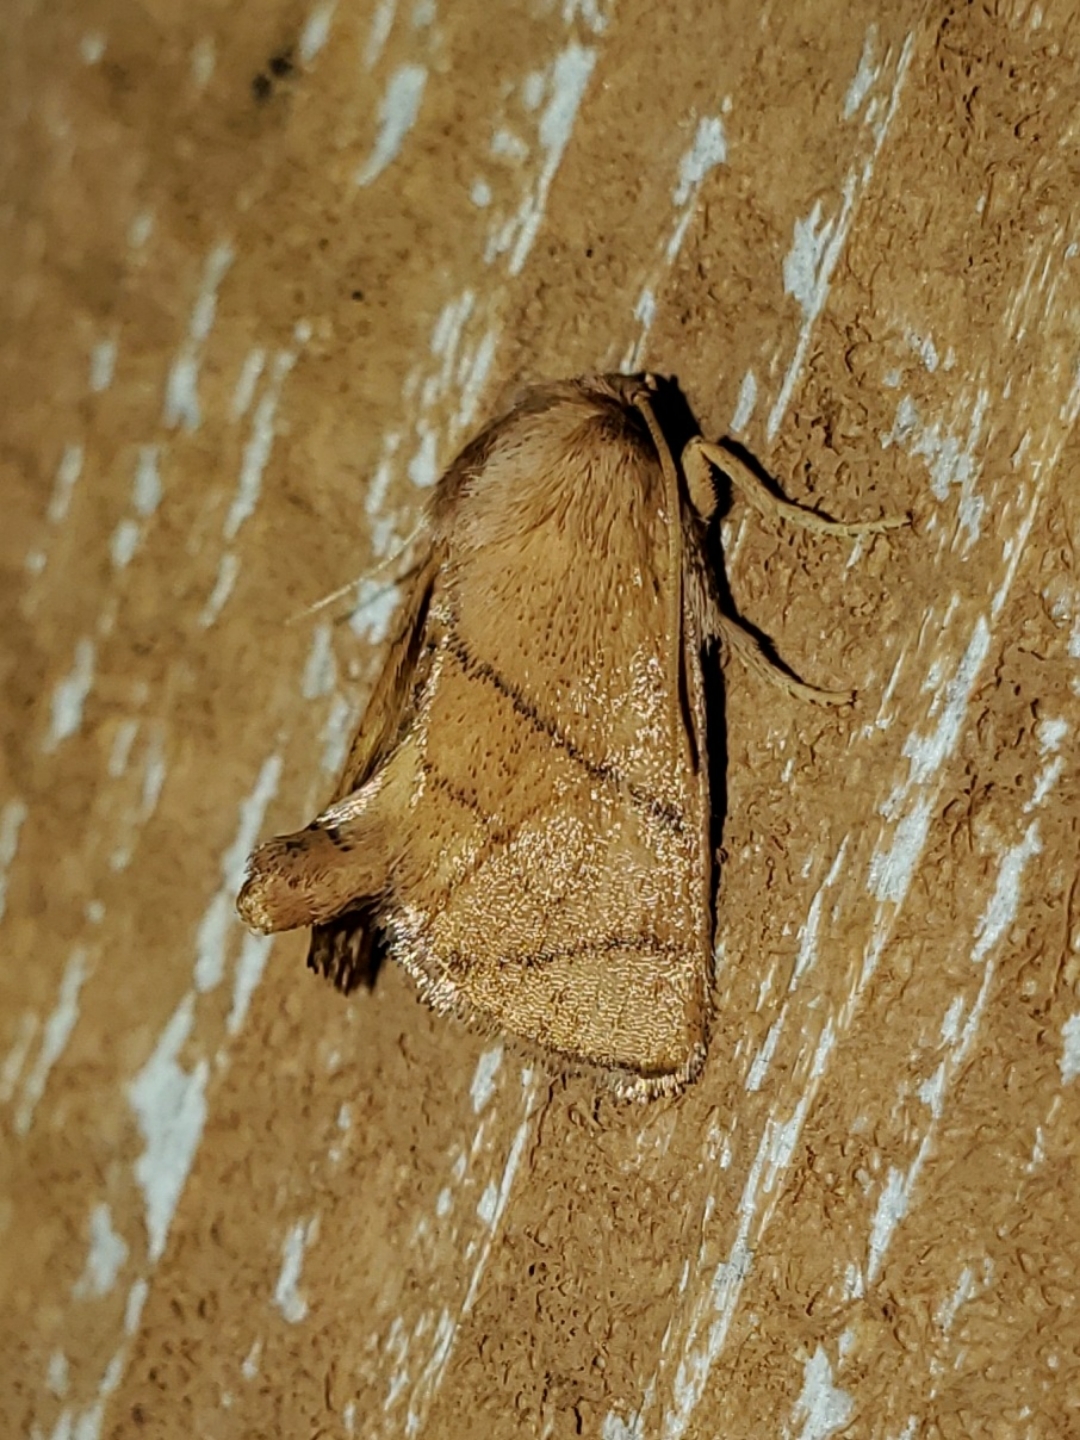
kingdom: Animalia
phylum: Arthropoda
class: Insecta
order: Lepidoptera
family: Limacodidae
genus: Apoda
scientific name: Apoda y-inversa
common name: Yellow-collared slug moth
